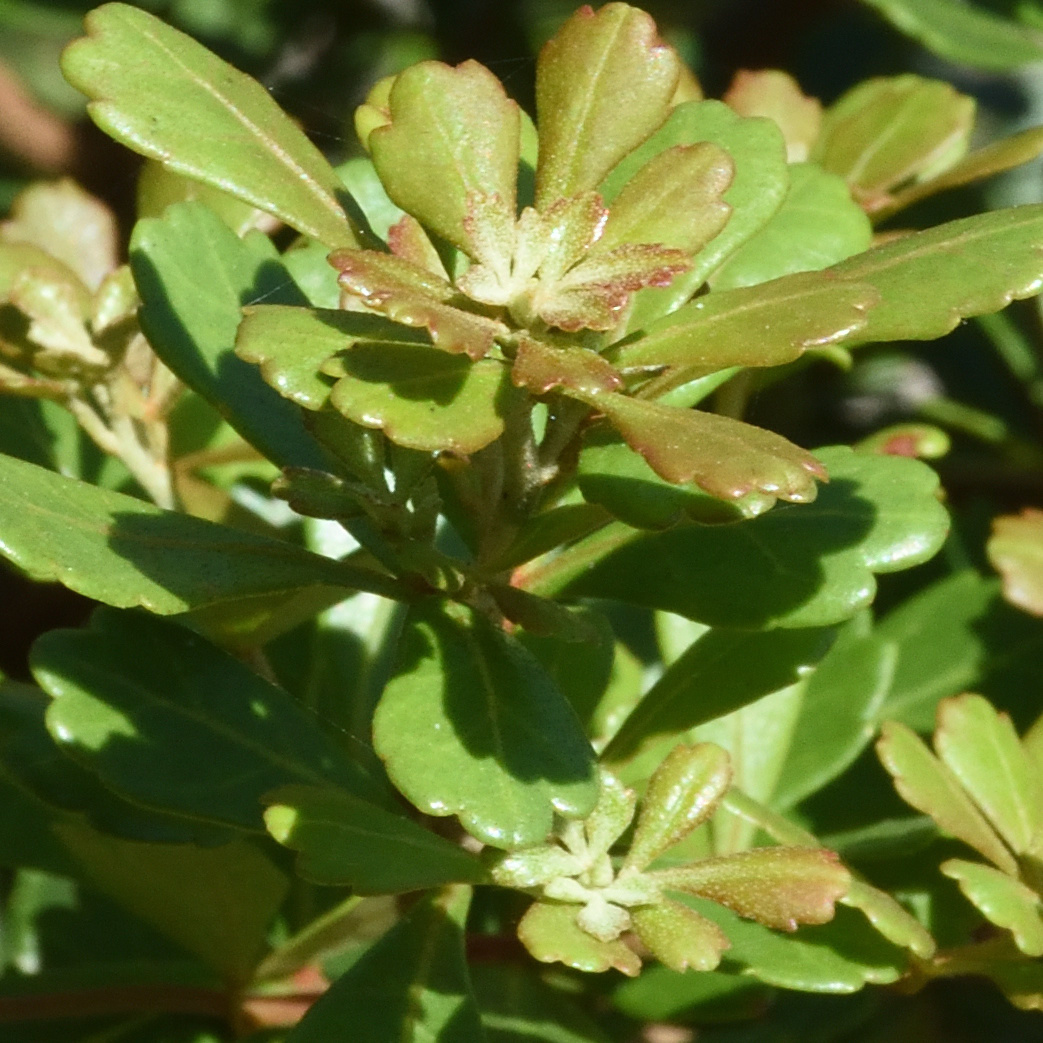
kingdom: Plantae
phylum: Tracheophyta
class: Magnoliopsida
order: Sapindales
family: Anacardiaceae
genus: Searsia
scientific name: Searsia crenata
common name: Crowberry
